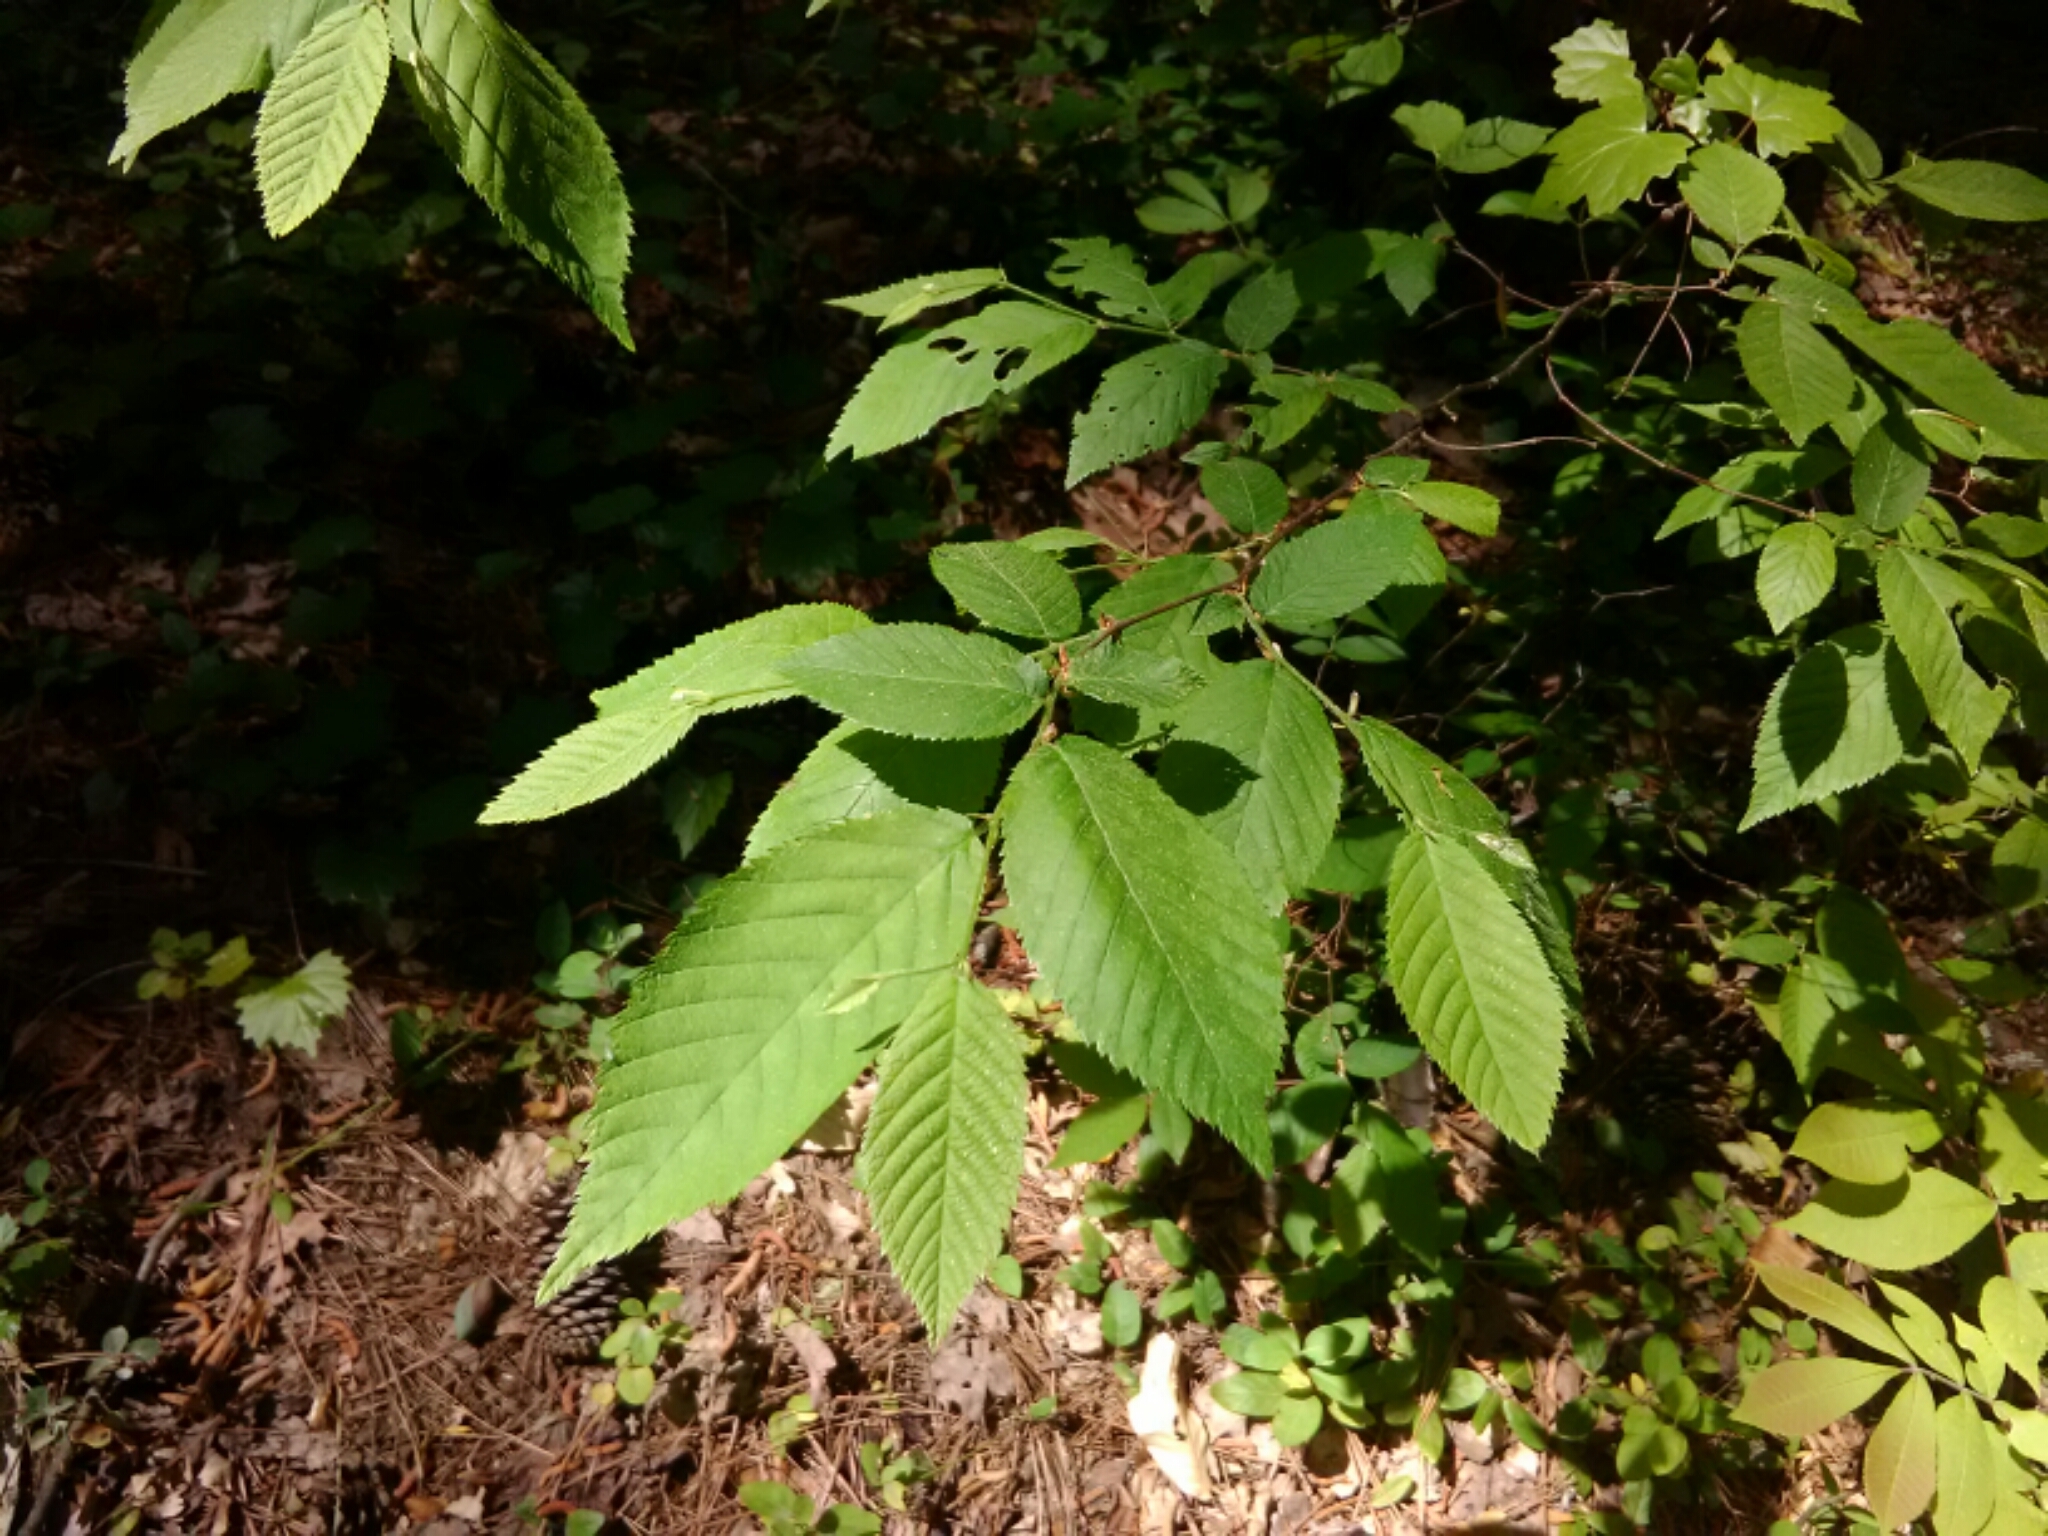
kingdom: Plantae
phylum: Tracheophyta
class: Magnoliopsida
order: Fagales
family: Fagaceae
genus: Fagus
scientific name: Fagus grandifolia
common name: American beech
